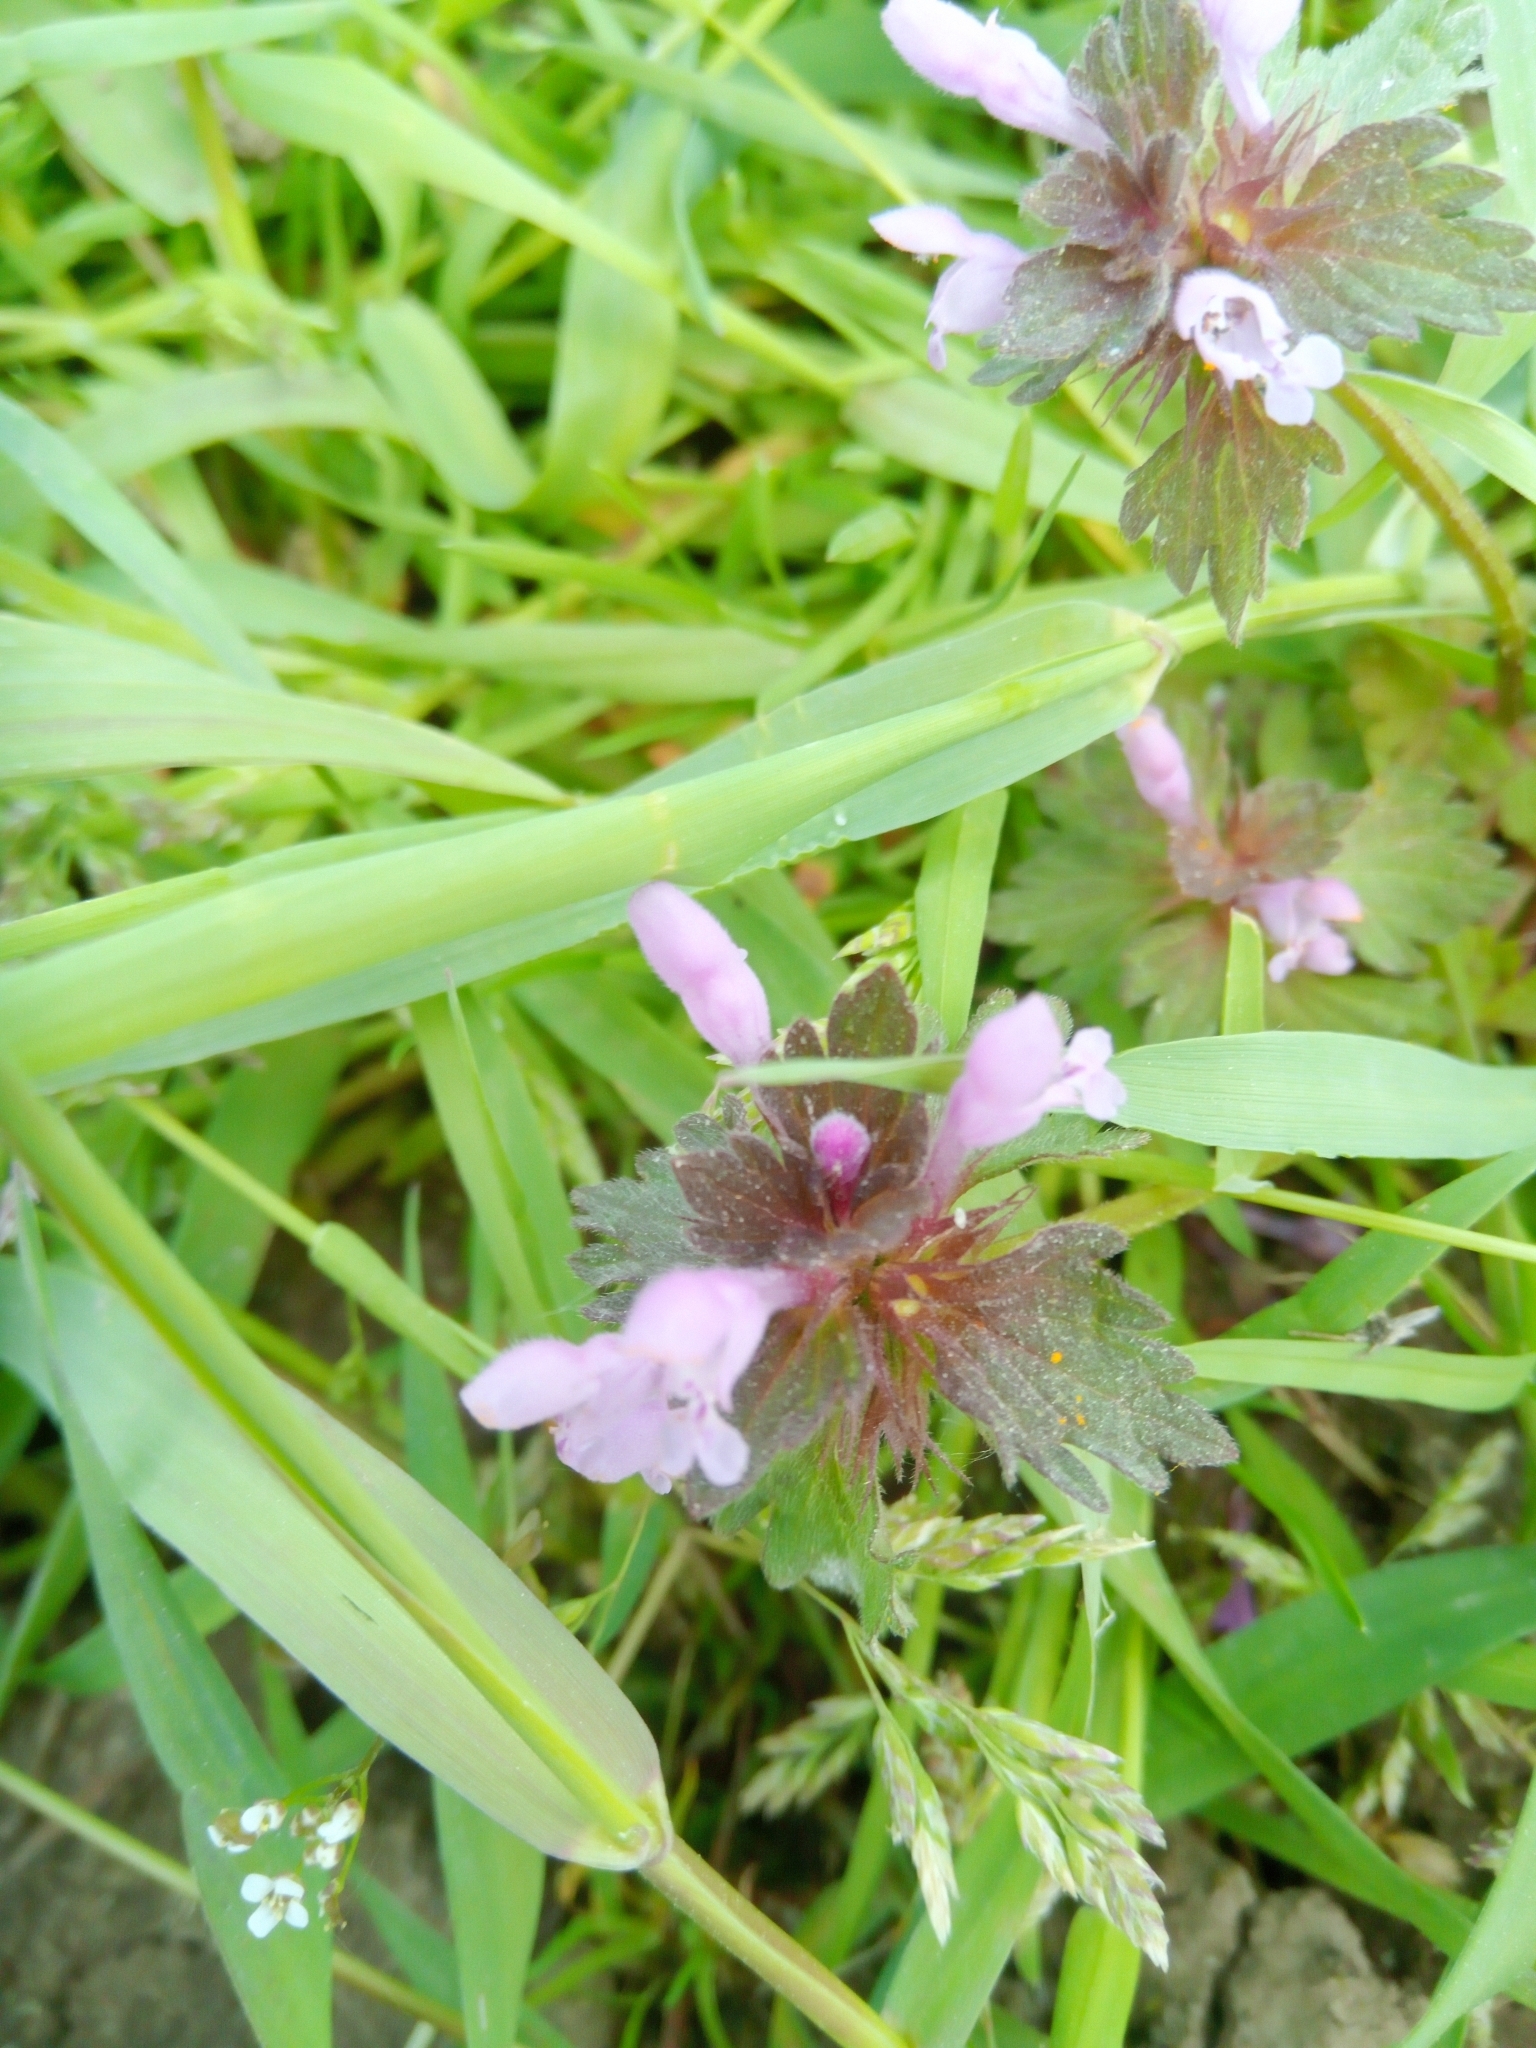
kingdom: Plantae
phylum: Tracheophyta
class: Magnoliopsida
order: Lamiales
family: Lamiaceae
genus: Lamium
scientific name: Lamium purpureum
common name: Red dead-nettle
